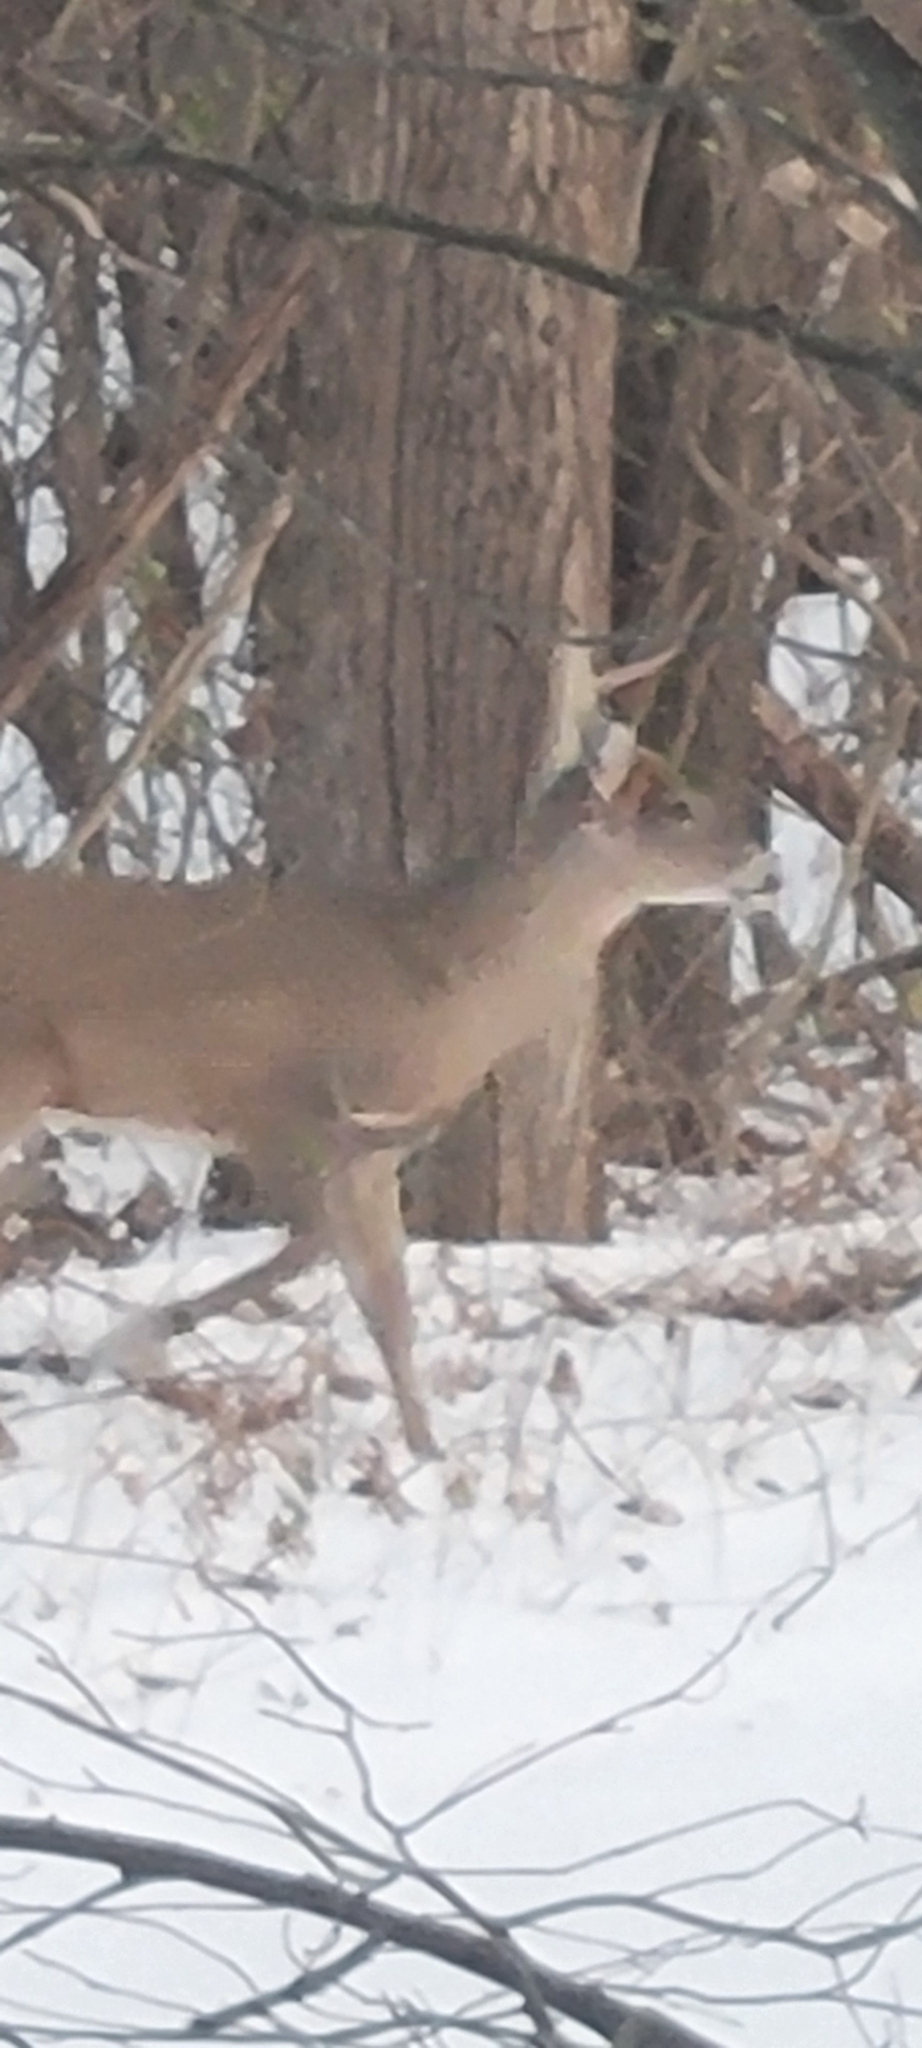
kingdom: Animalia
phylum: Chordata
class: Mammalia
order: Artiodactyla
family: Cervidae
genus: Odocoileus
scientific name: Odocoileus virginianus
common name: White-tailed deer
